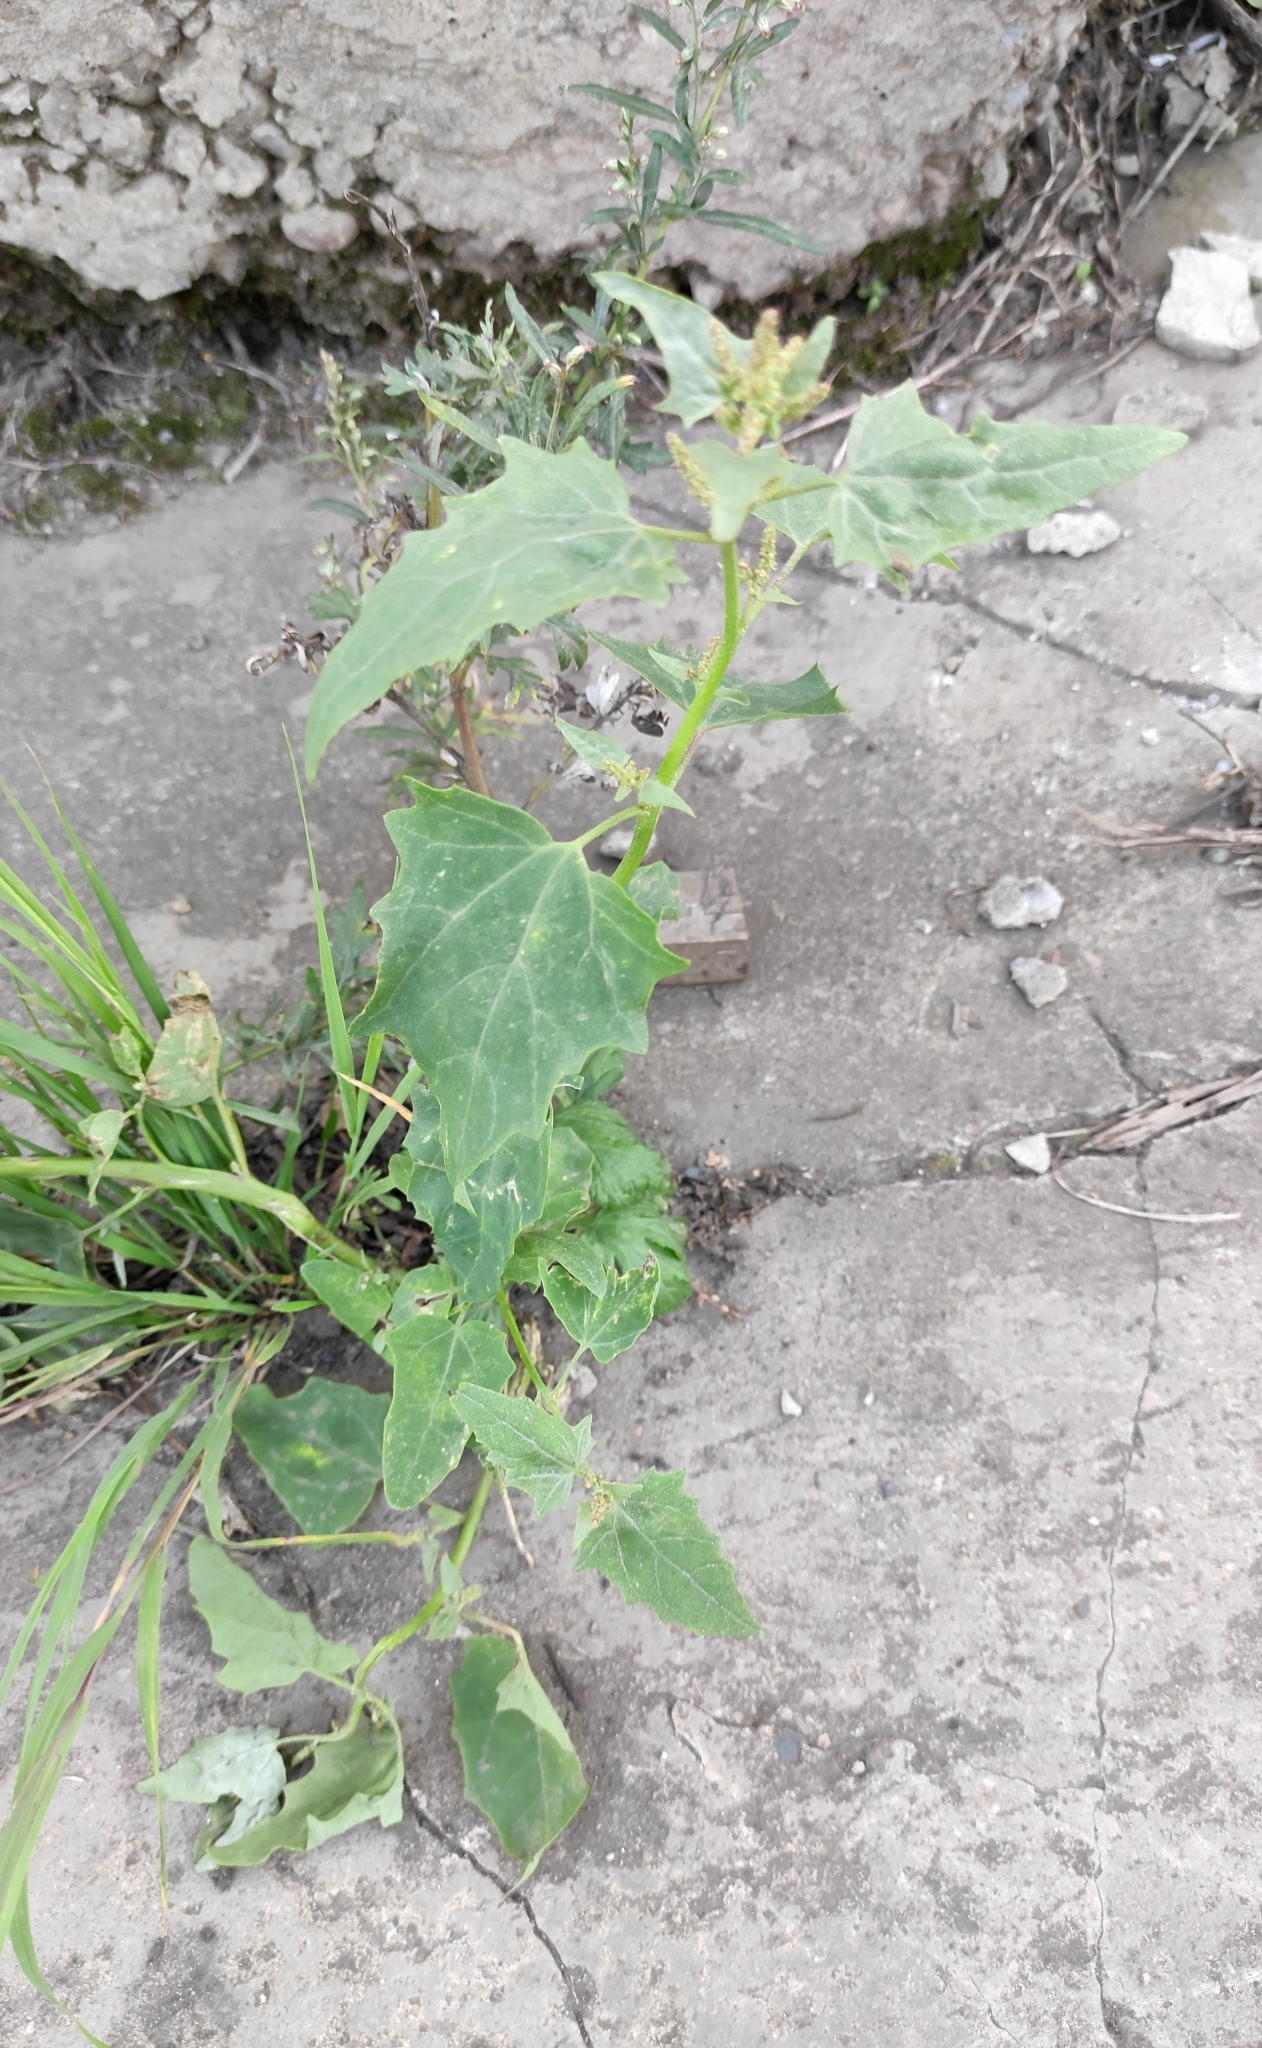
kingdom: Plantae
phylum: Tracheophyta
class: Magnoliopsida
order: Caryophyllales
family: Amaranthaceae
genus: Atriplex
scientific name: Atriplex sagittata
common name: Purple orache
